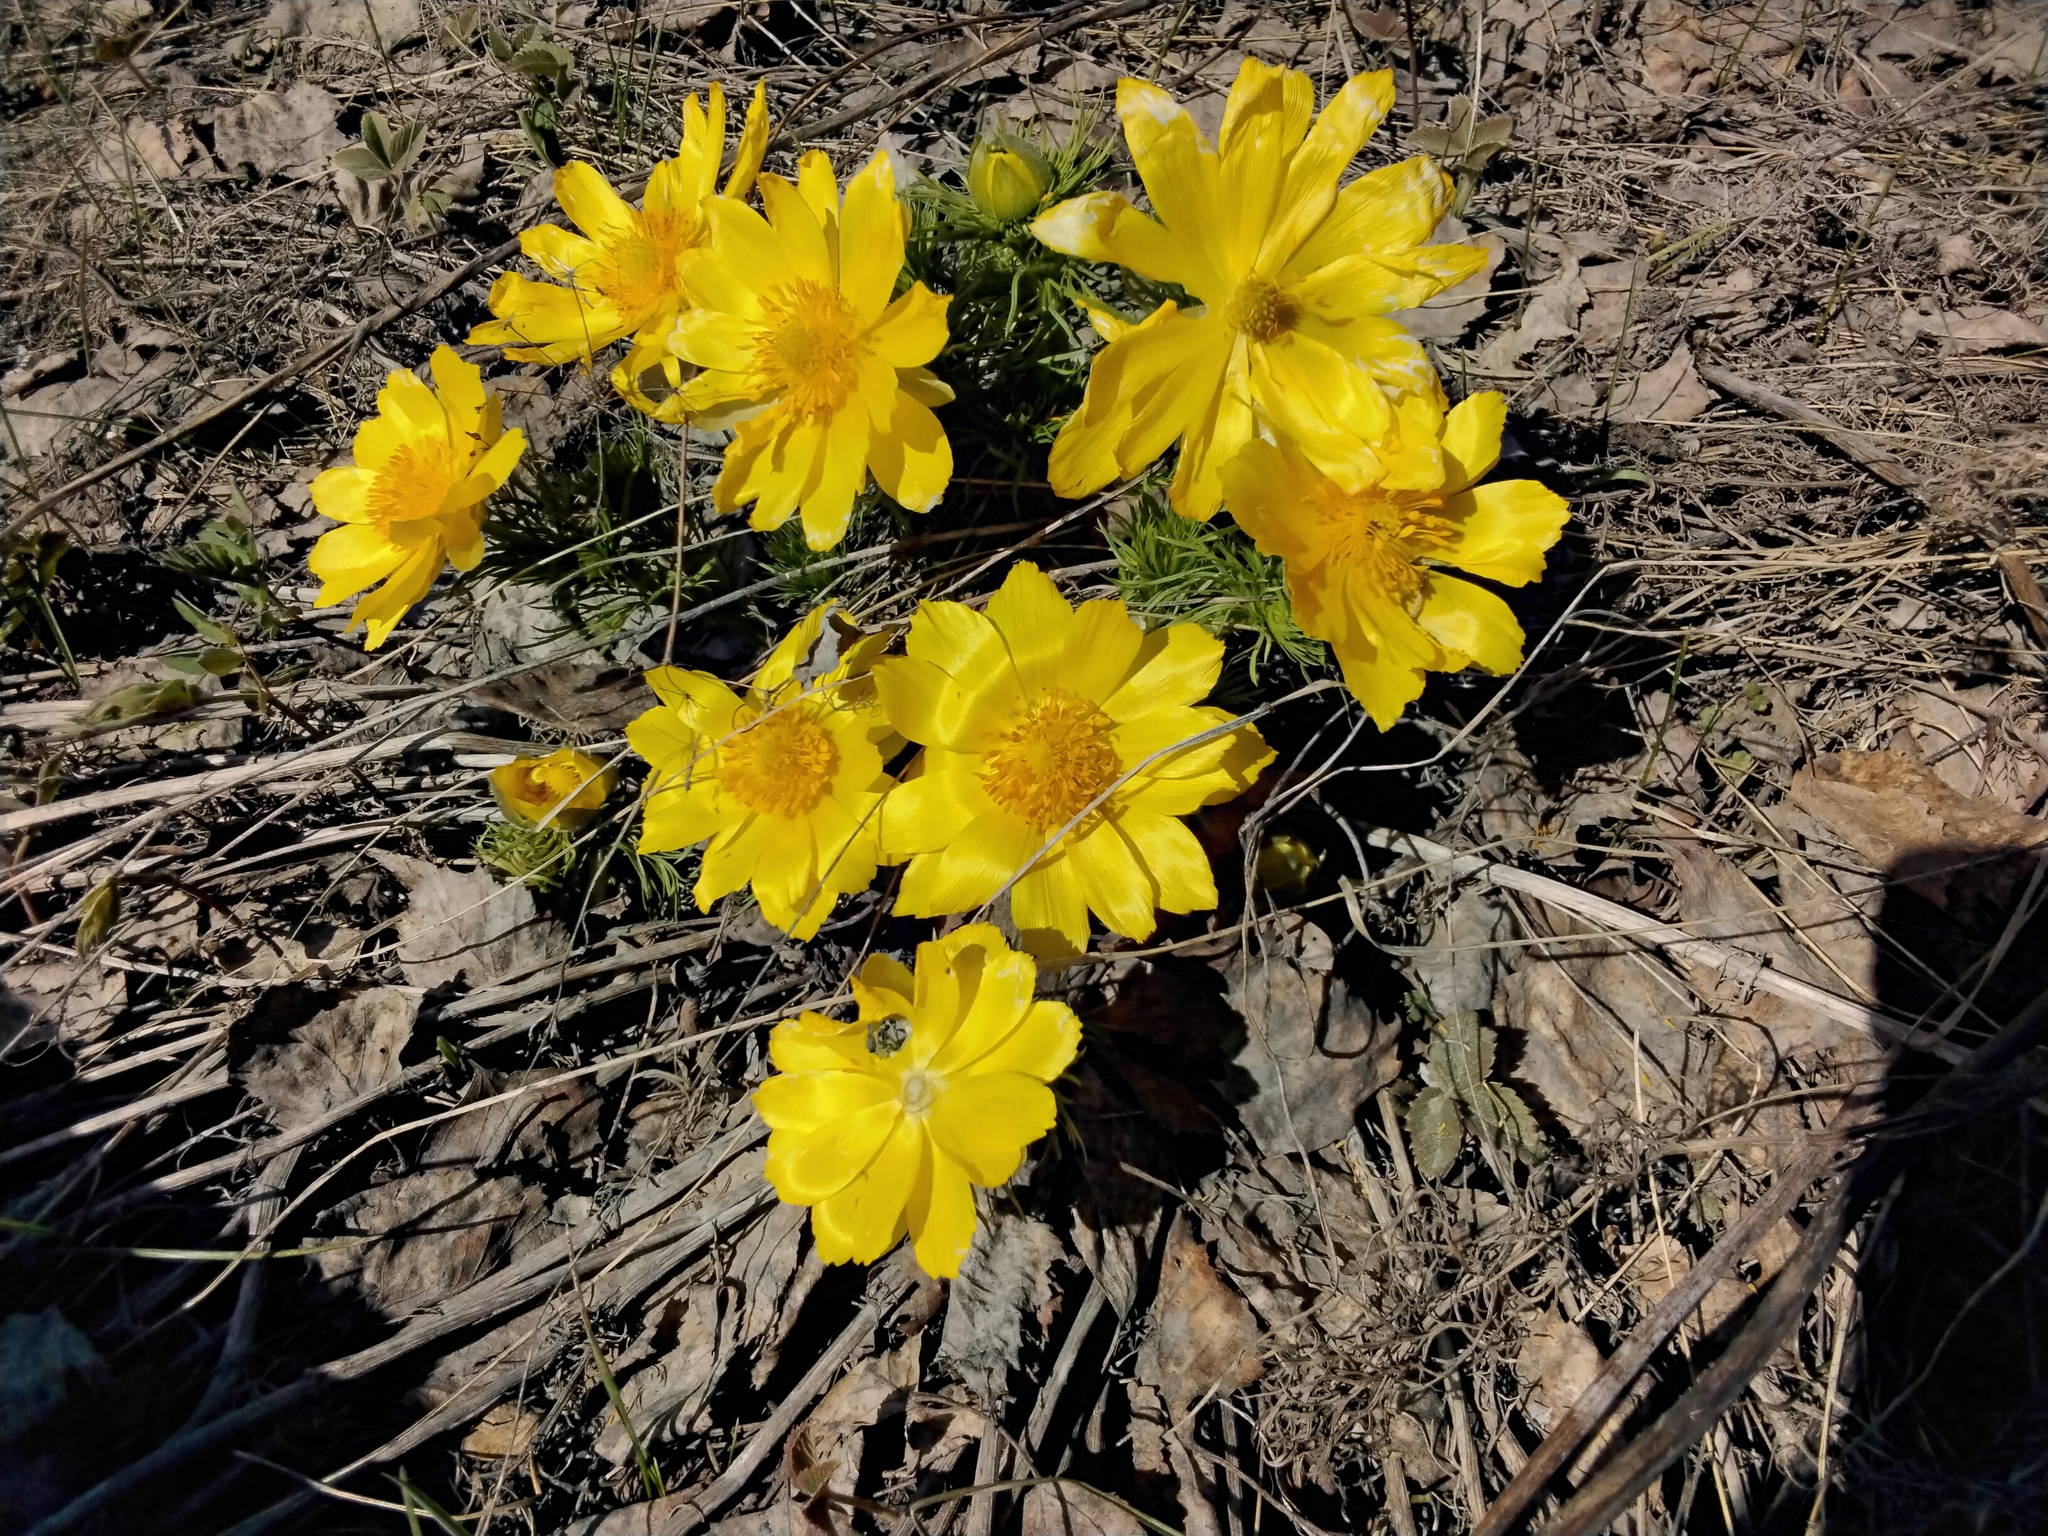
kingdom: Plantae
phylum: Tracheophyta
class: Magnoliopsida
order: Ranunculales
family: Ranunculaceae
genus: Adonis
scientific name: Adonis vernalis
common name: Yellow pheasants-eye
